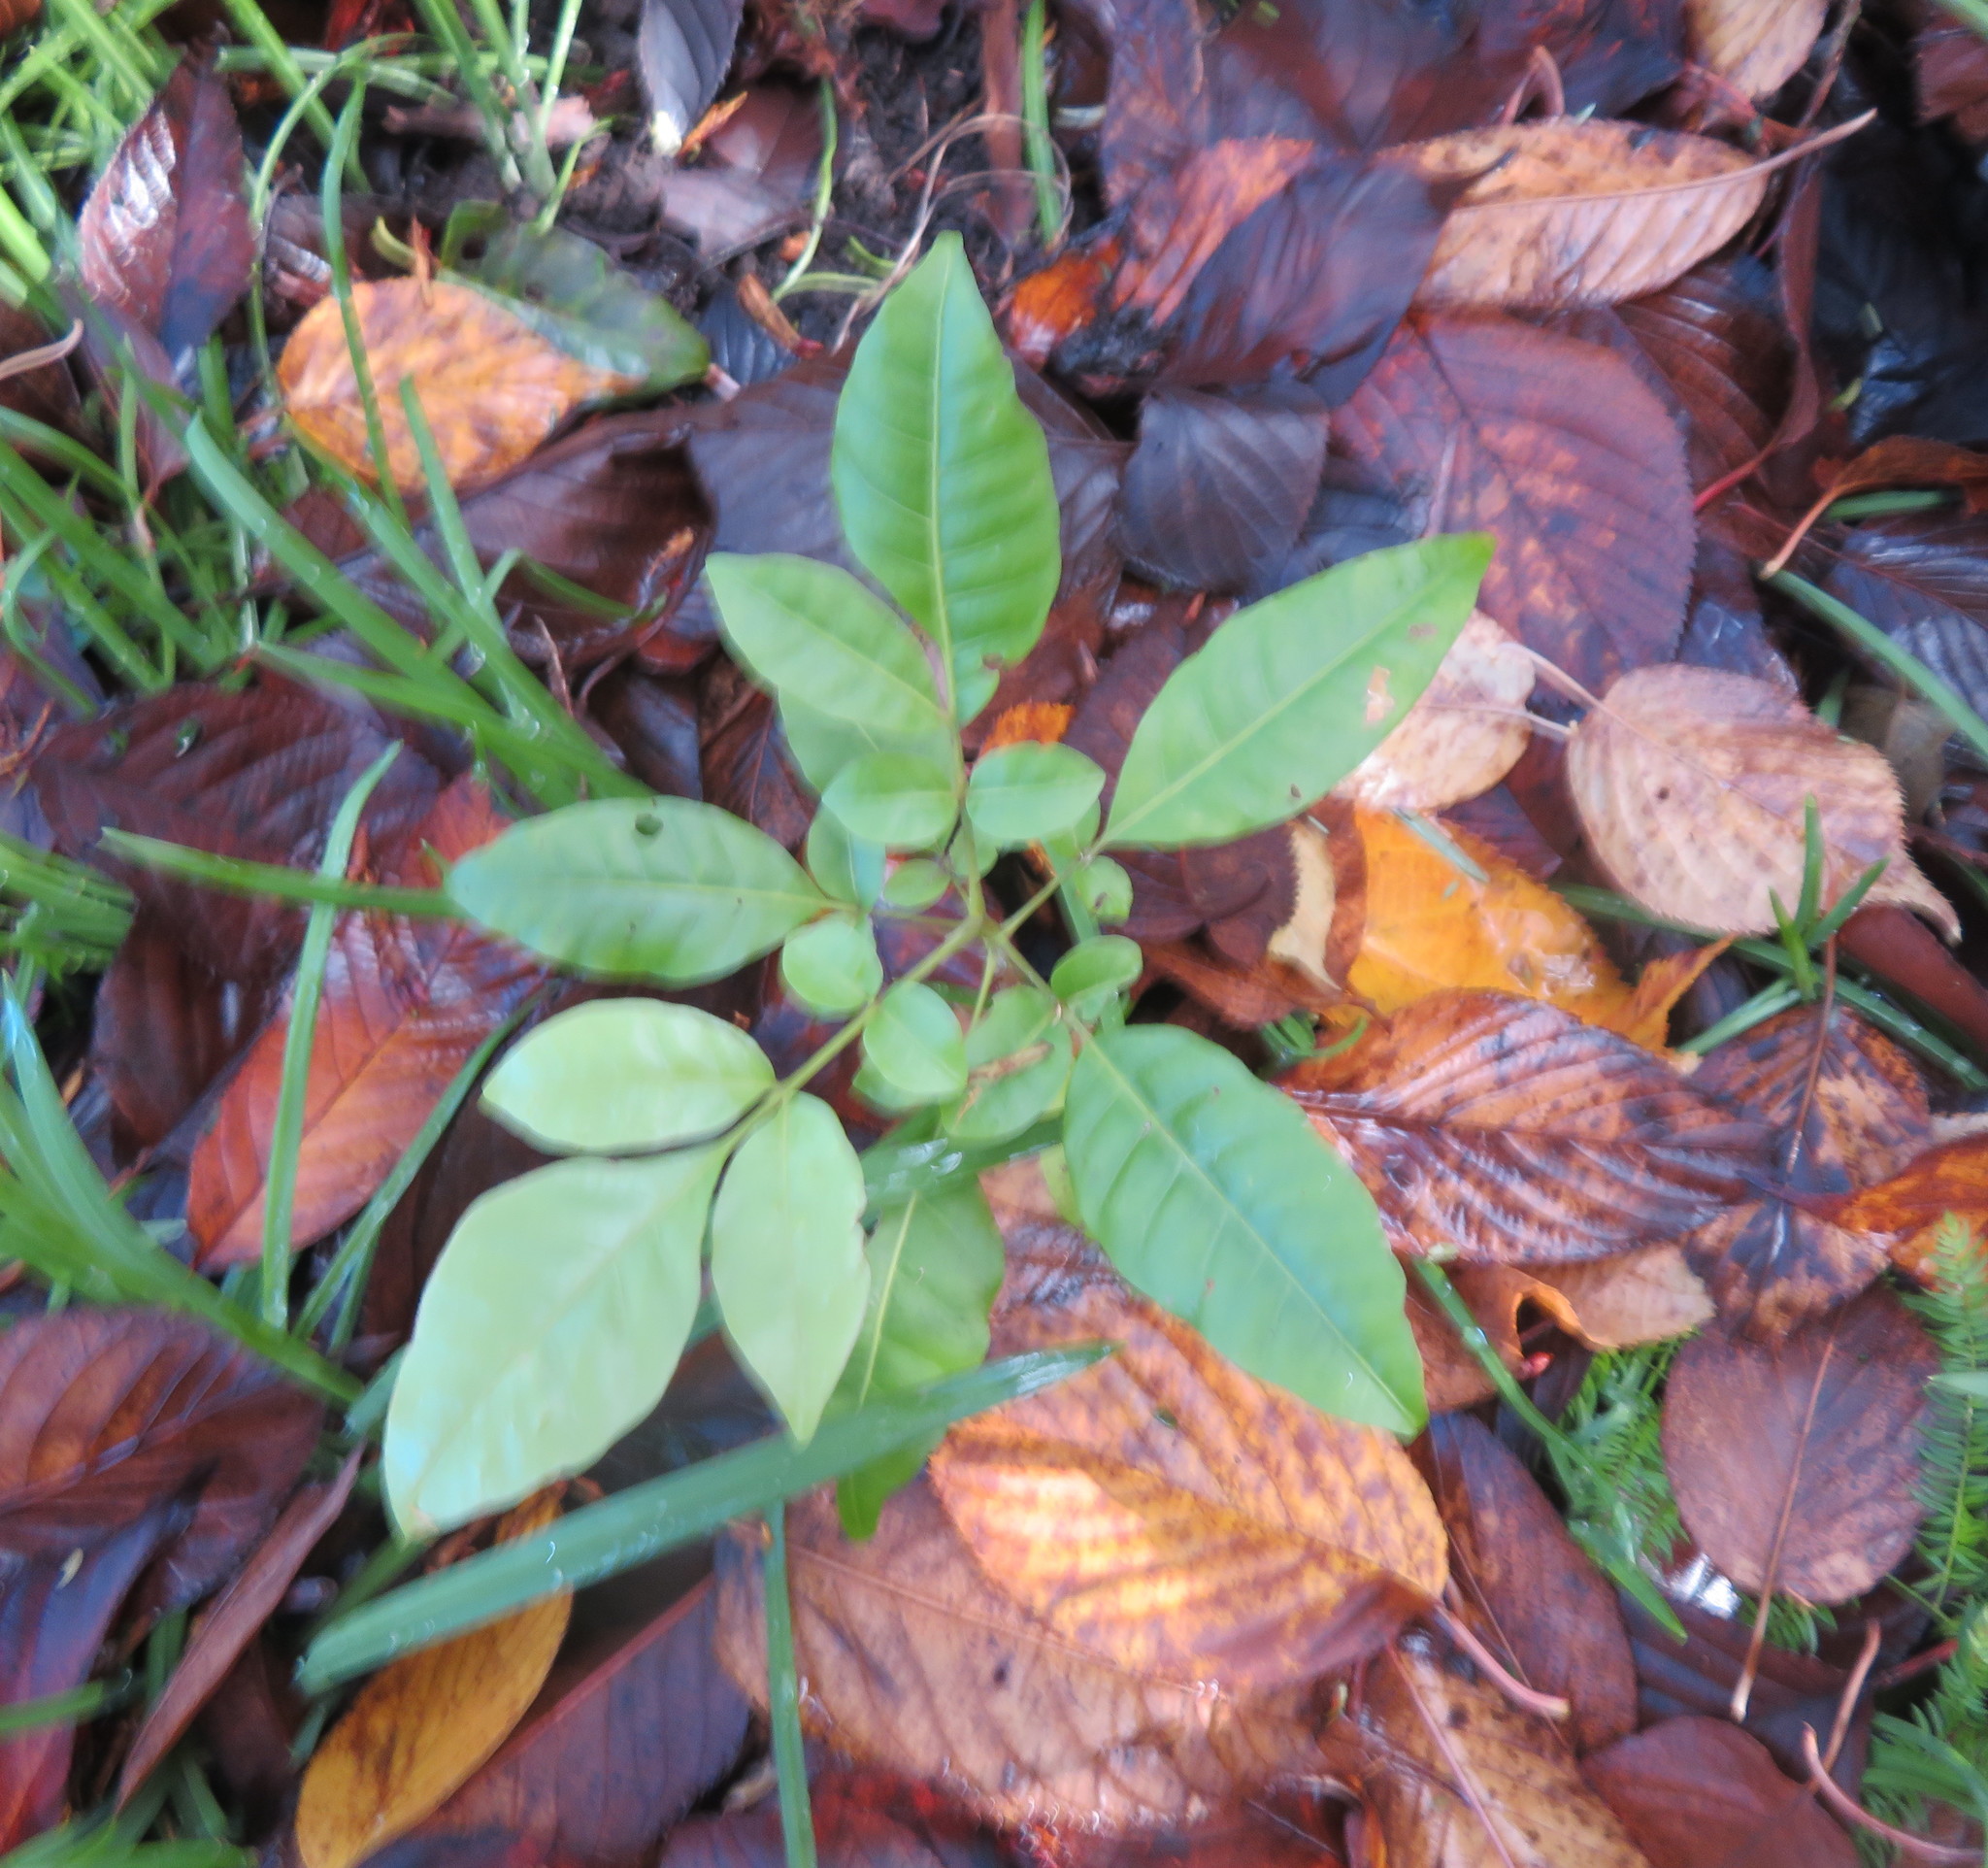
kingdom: Plantae
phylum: Tracheophyta
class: Magnoliopsida
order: Sapindales
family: Meliaceae
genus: Didymocheton
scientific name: Didymocheton spectabilis
